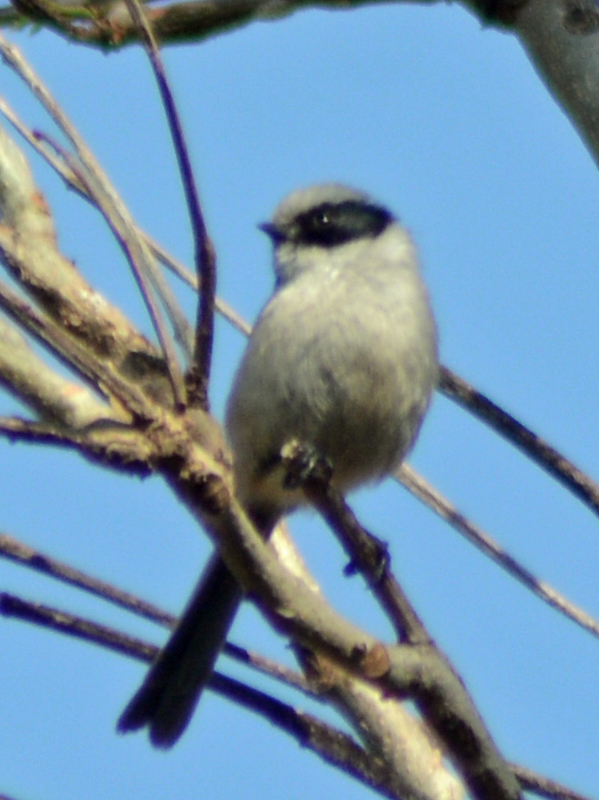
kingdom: Animalia
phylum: Chordata
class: Aves
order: Passeriformes
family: Aegithalidae
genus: Psaltriparus
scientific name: Psaltriparus minimus
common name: American bushtit
